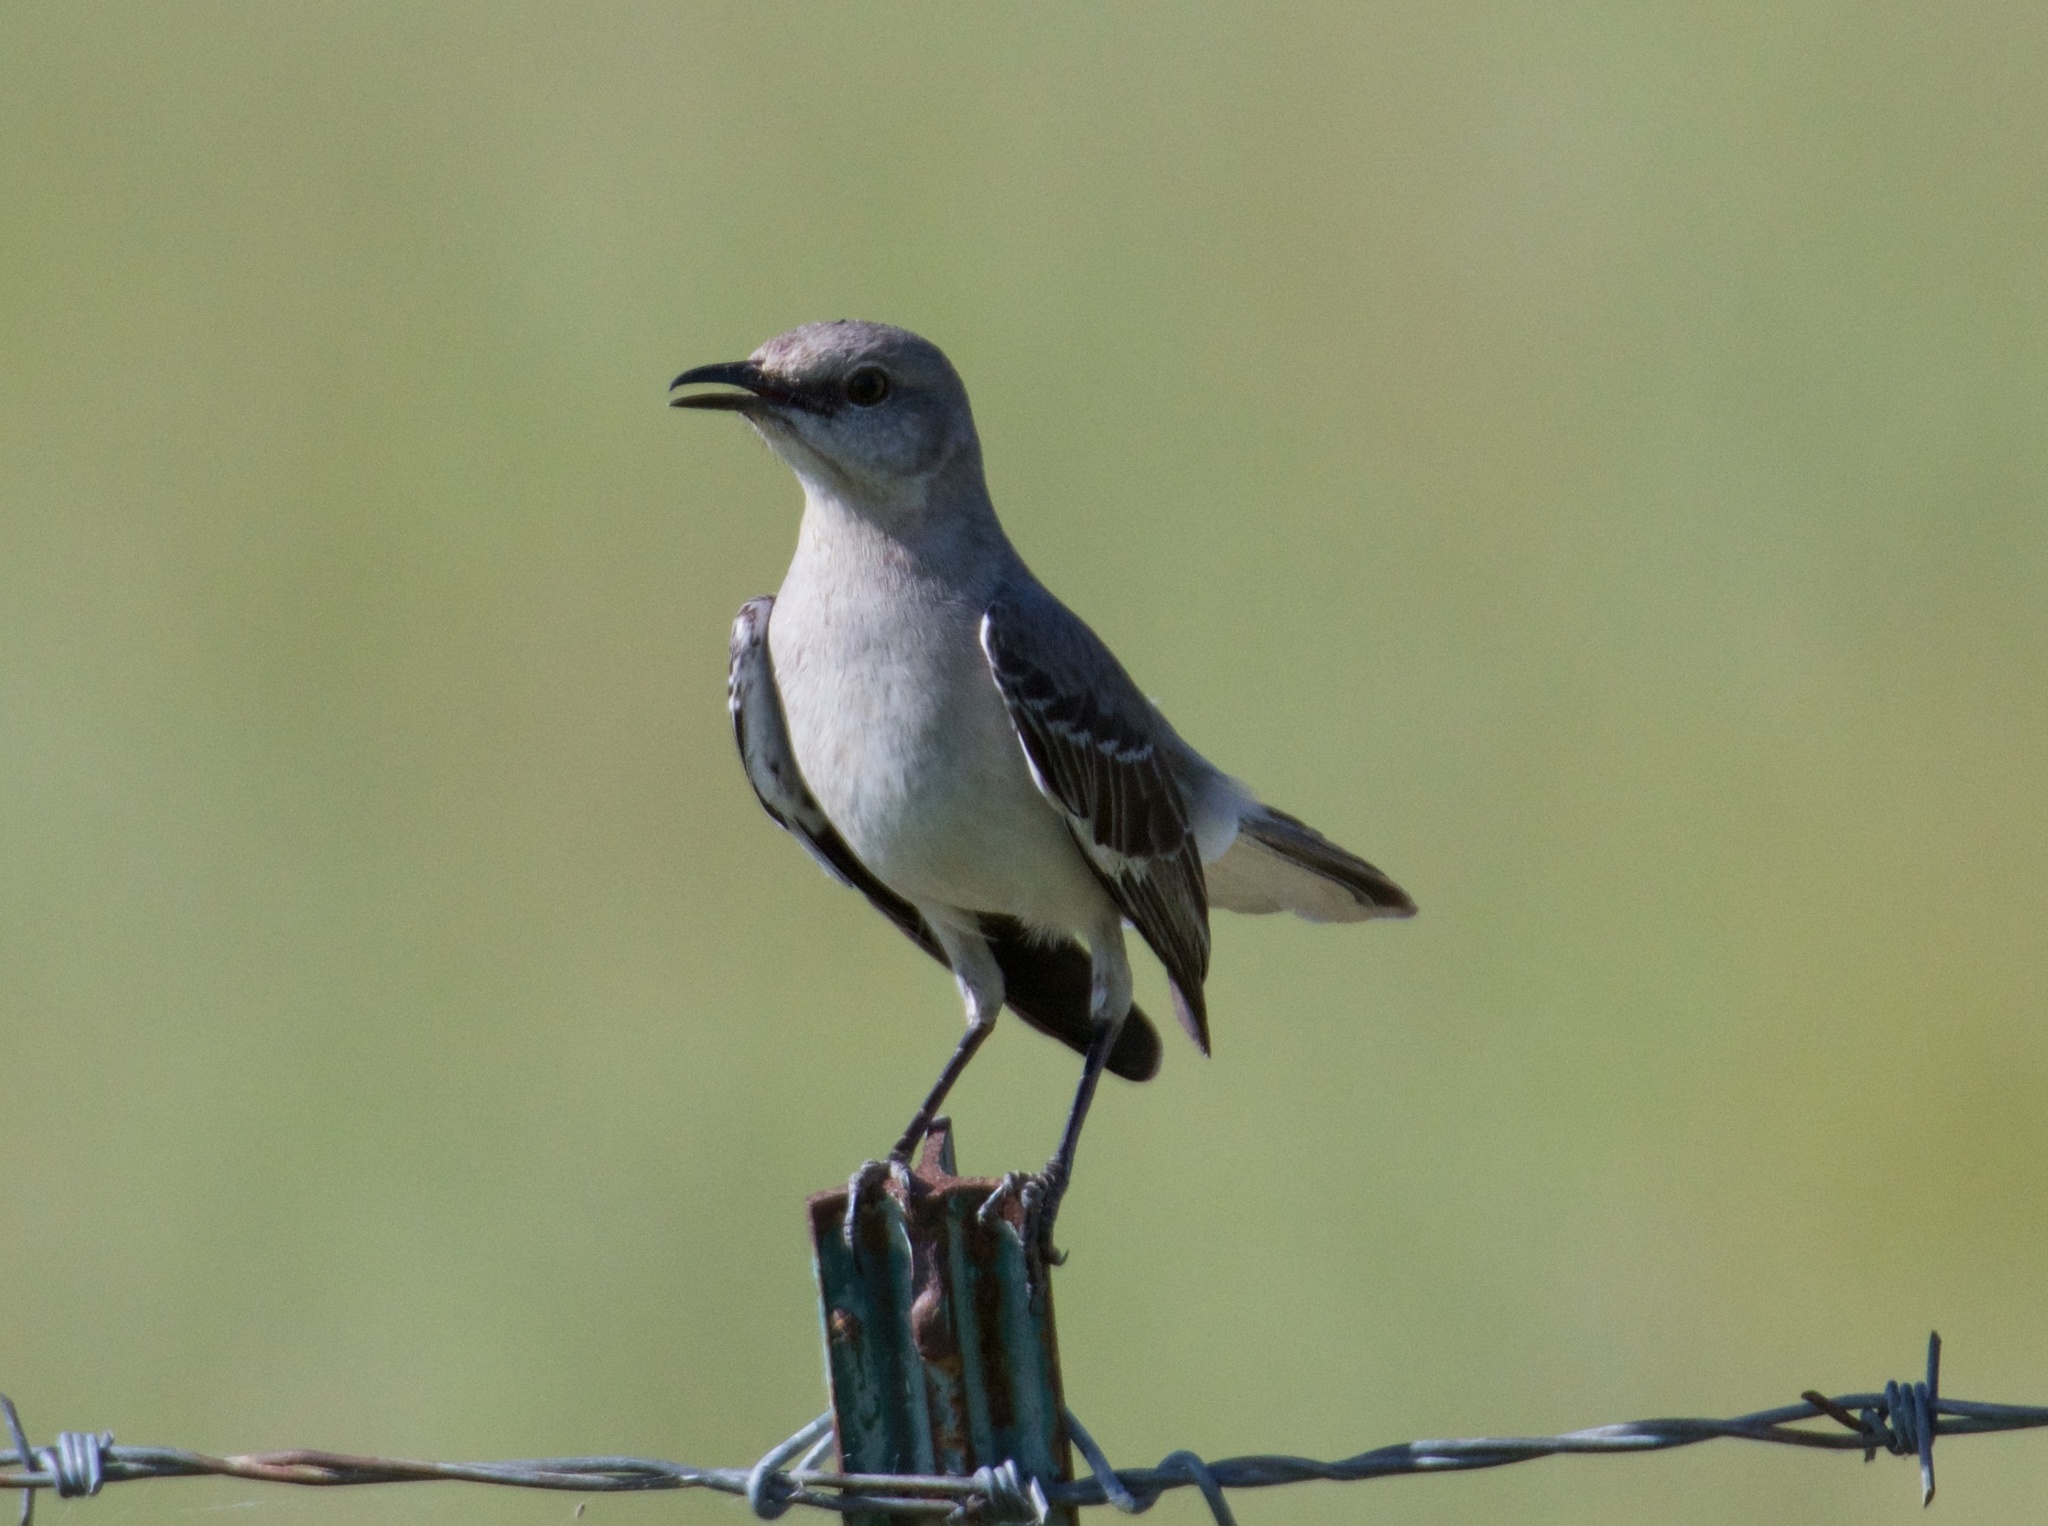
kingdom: Animalia
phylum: Chordata
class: Aves
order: Passeriformes
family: Mimidae
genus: Mimus
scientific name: Mimus polyglottos
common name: Northern mockingbird
